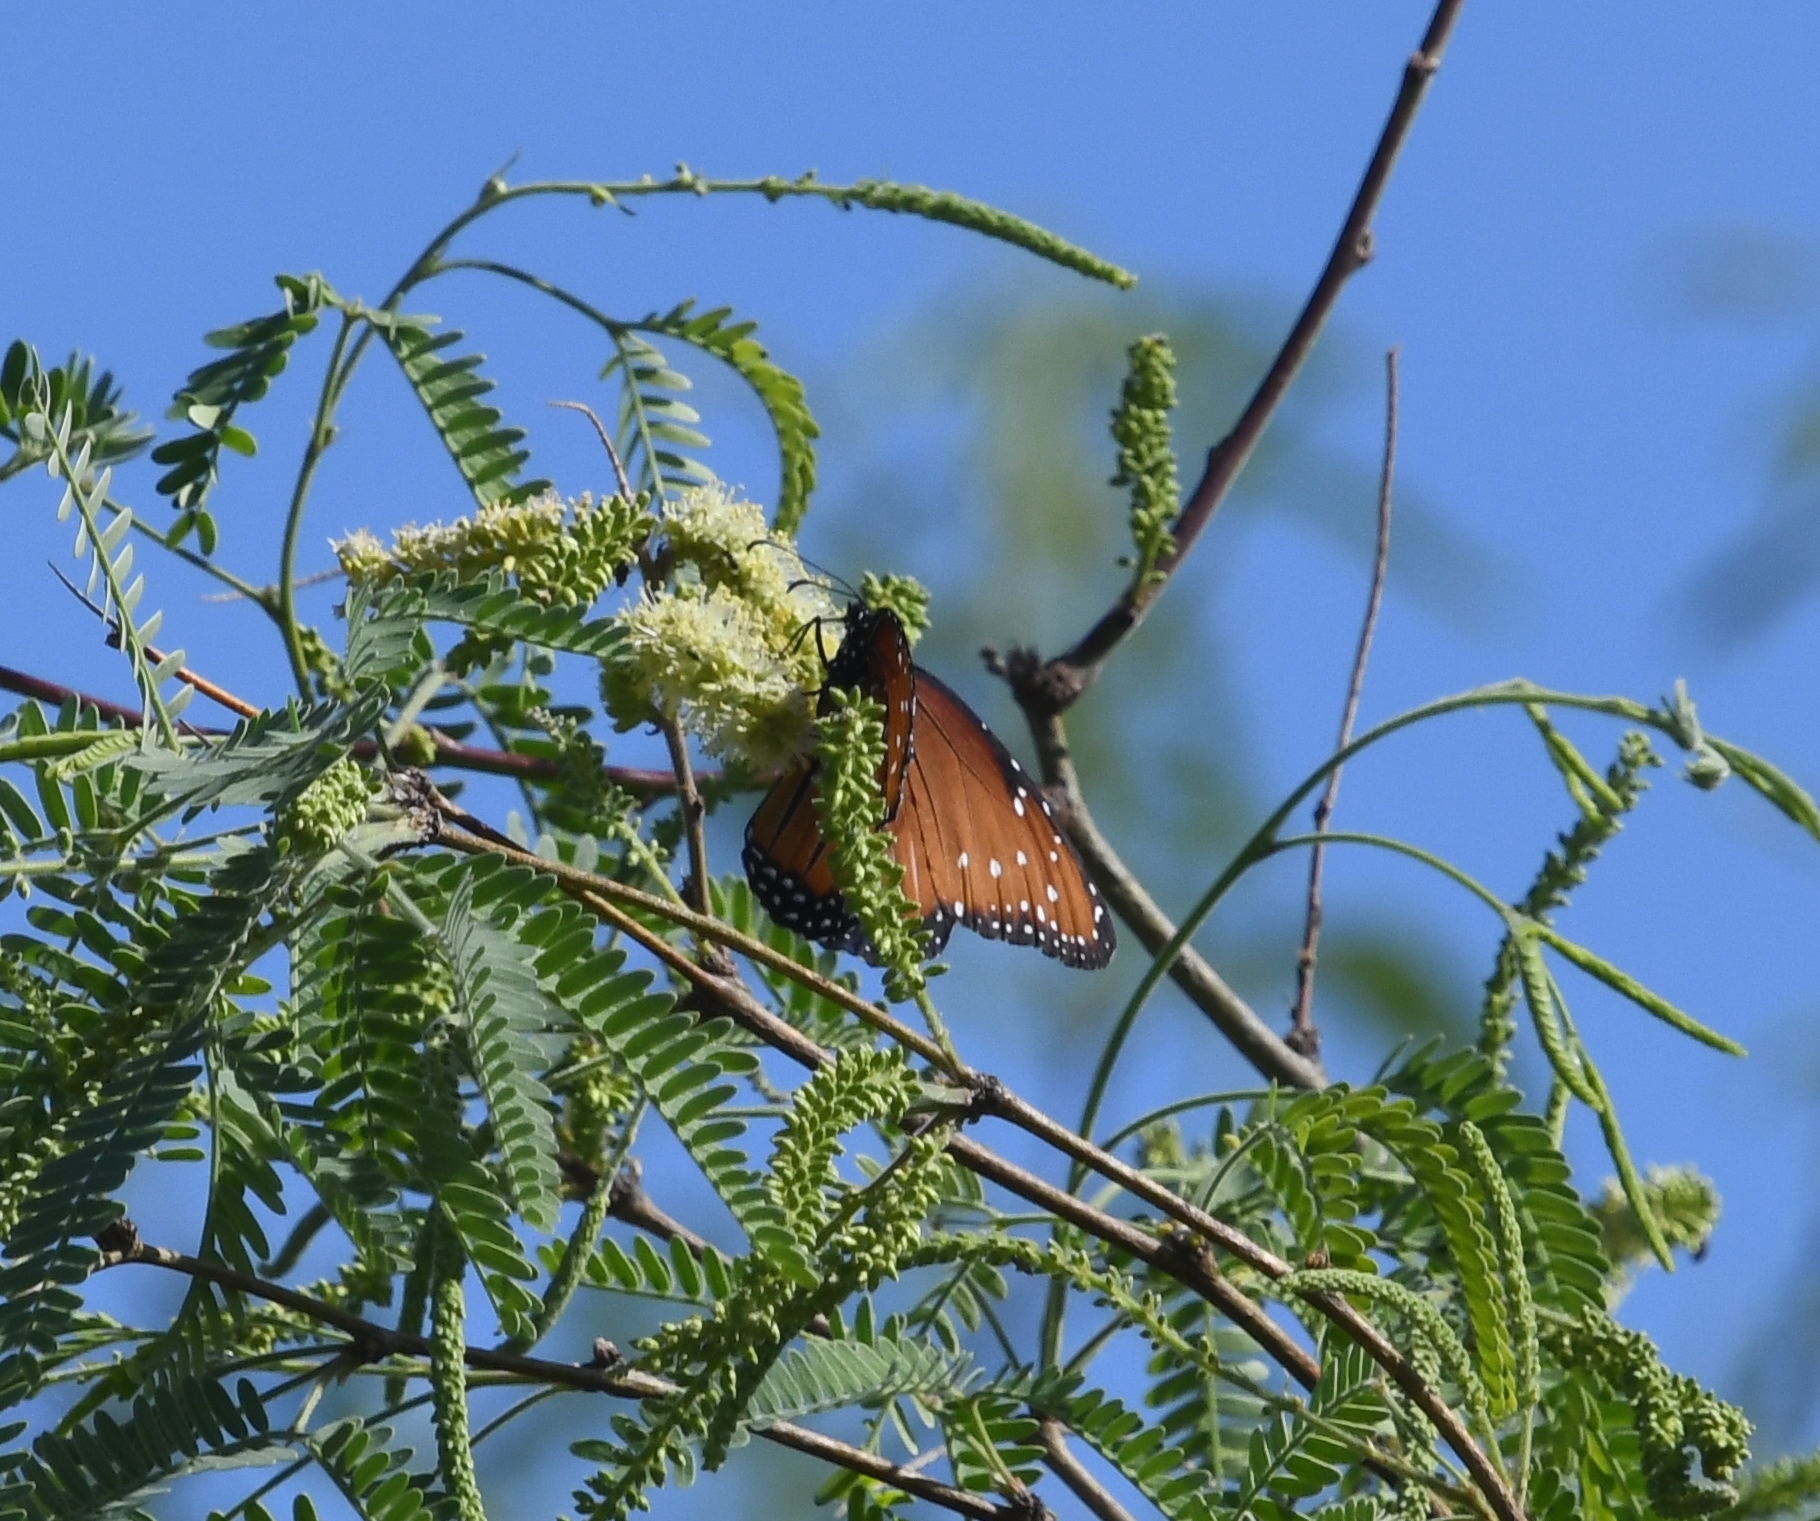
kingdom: Animalia
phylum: Arthropoda
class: Insecta
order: Lepidoptera
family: Nymphalidae
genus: Danaus
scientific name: Danaus gilippus
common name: Queen
